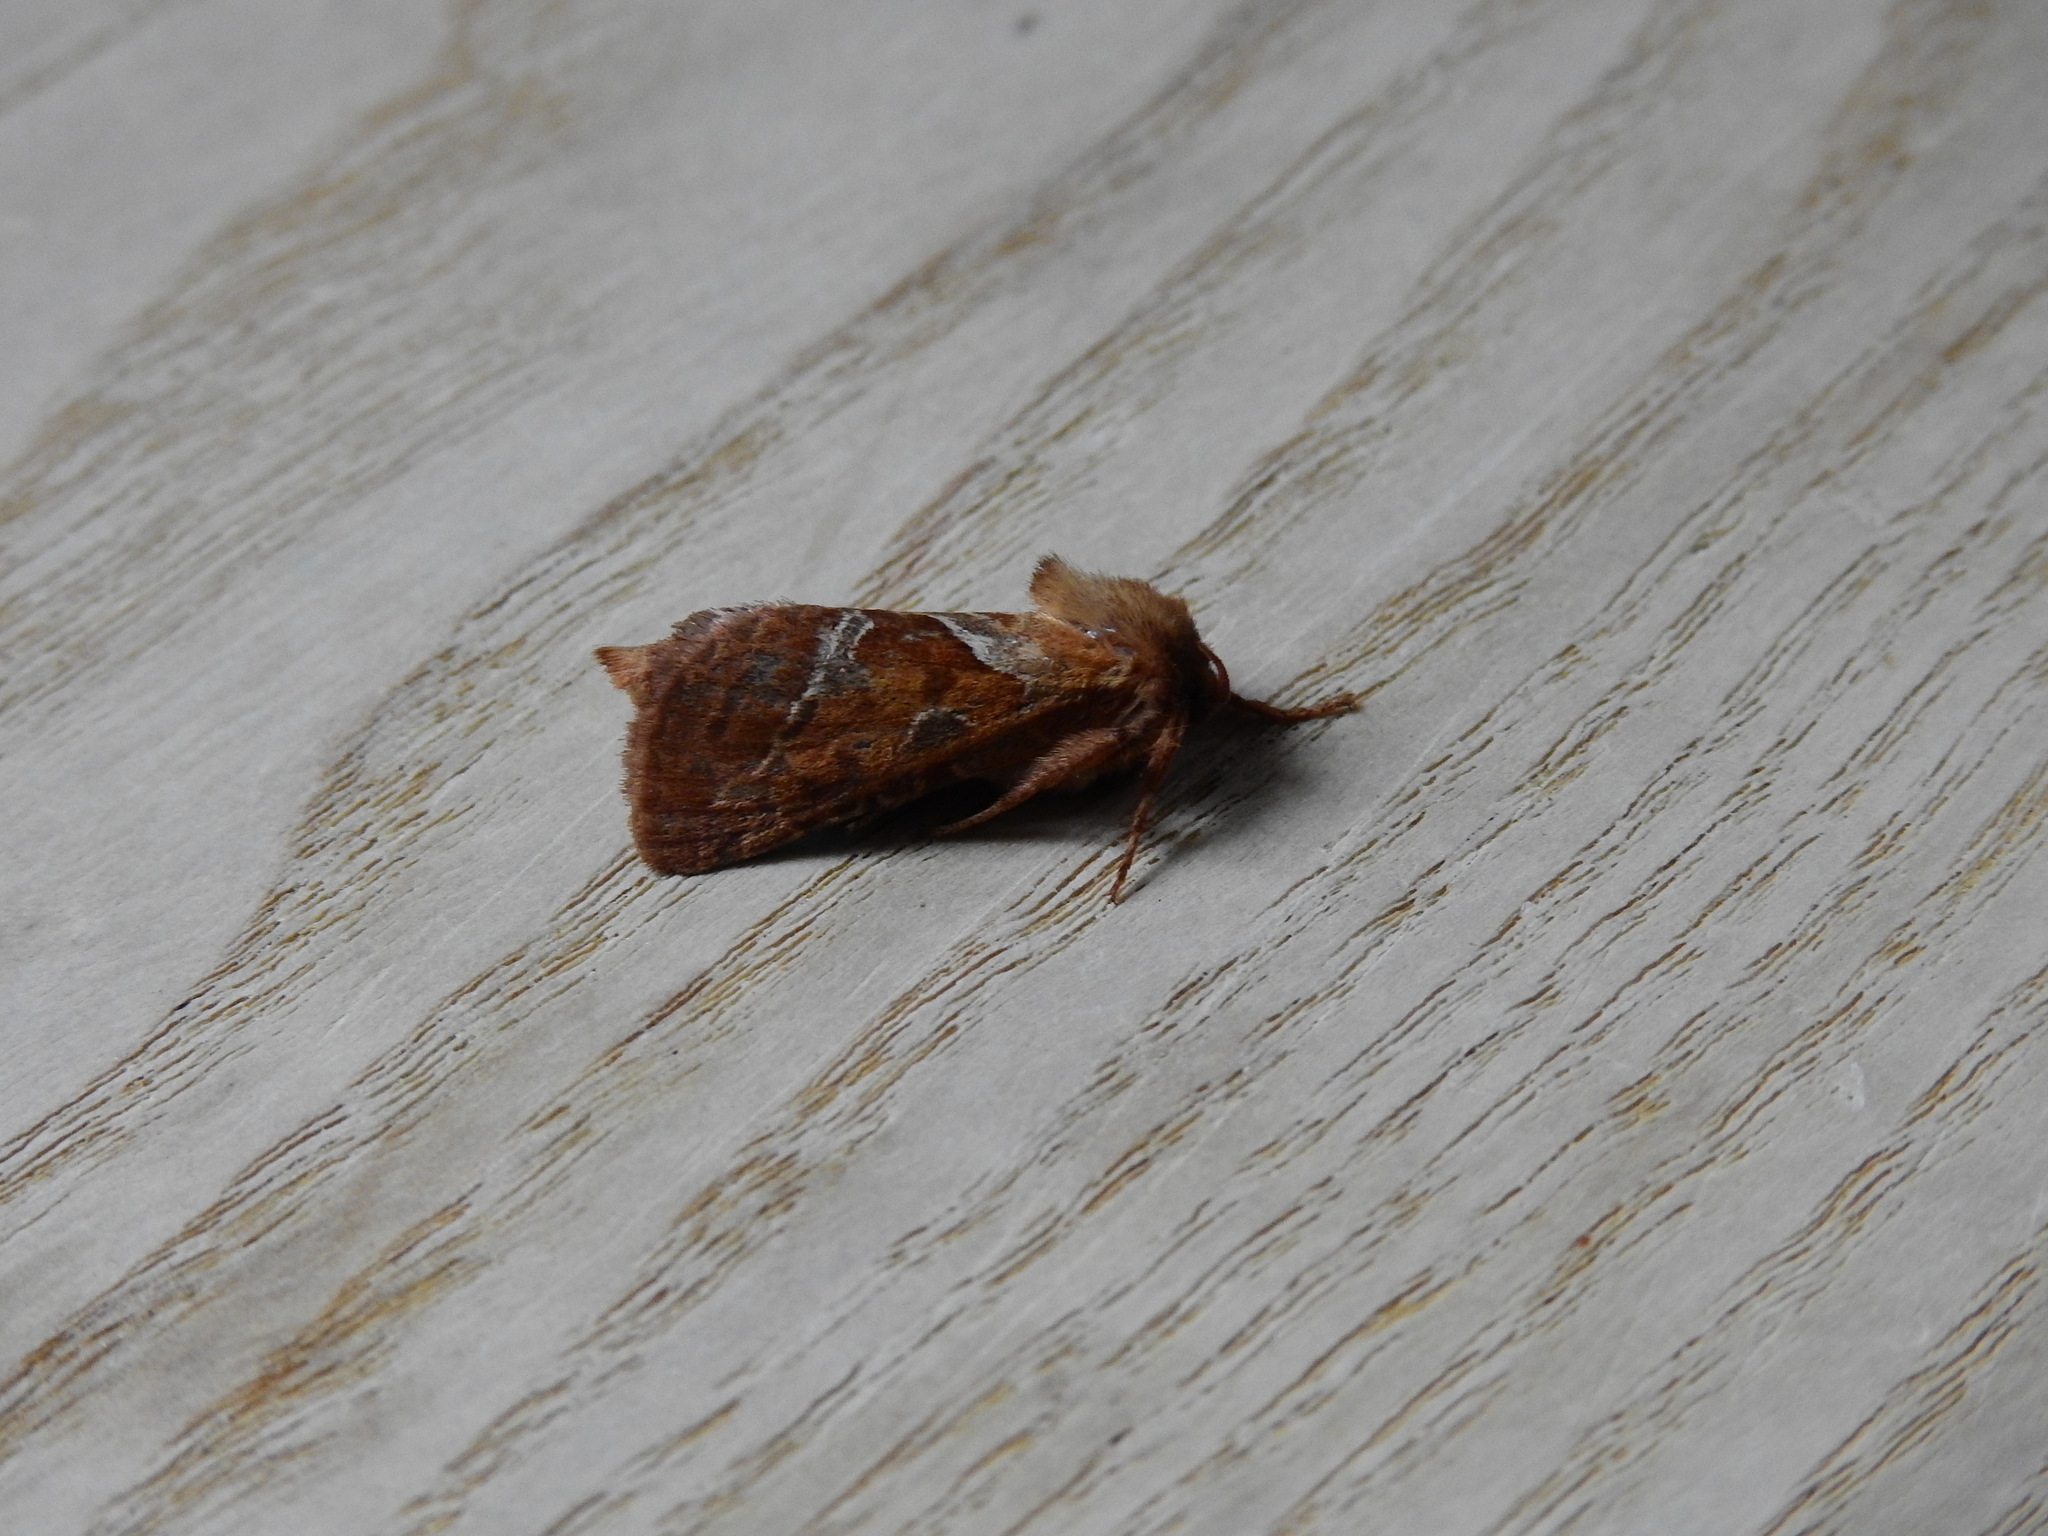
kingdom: Animalia
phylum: Arthropoda
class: Insecta
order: Lepidoptera
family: Hepialidae
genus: Triodia
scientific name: Triodia sylvina
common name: Orange swift
